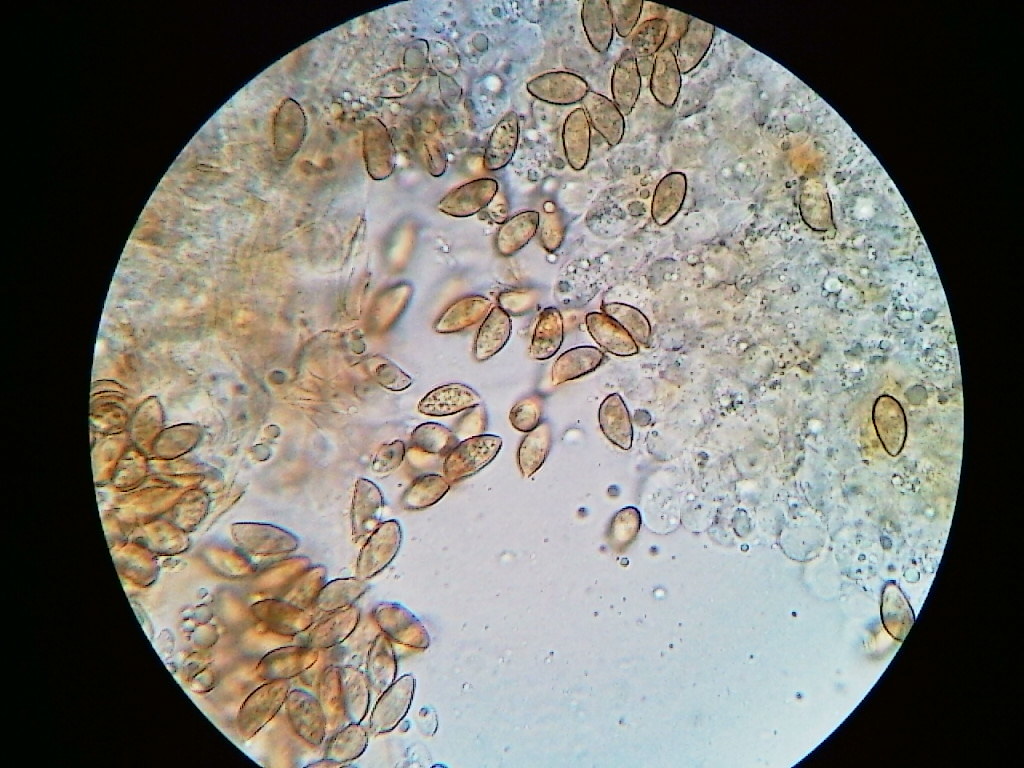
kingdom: Fungi
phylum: Basidiomycota
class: Agaricomycetes
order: Agaricales
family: Tubariaceae
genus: Phaeomarasmius
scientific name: Phaeomarasmius borealis
